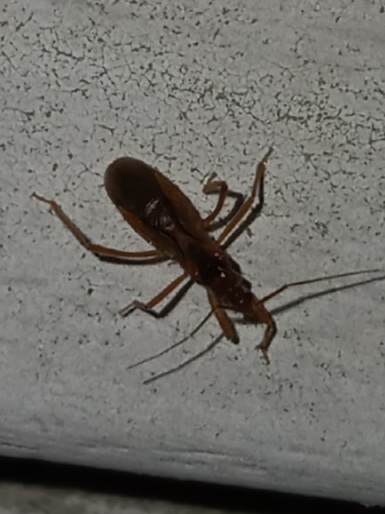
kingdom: Animalia
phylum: Arthropoda
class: Insecta
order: Hemiptera
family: Reduviidae
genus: Oncerotrachelus
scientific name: Oncerotrachelus acuminatus
